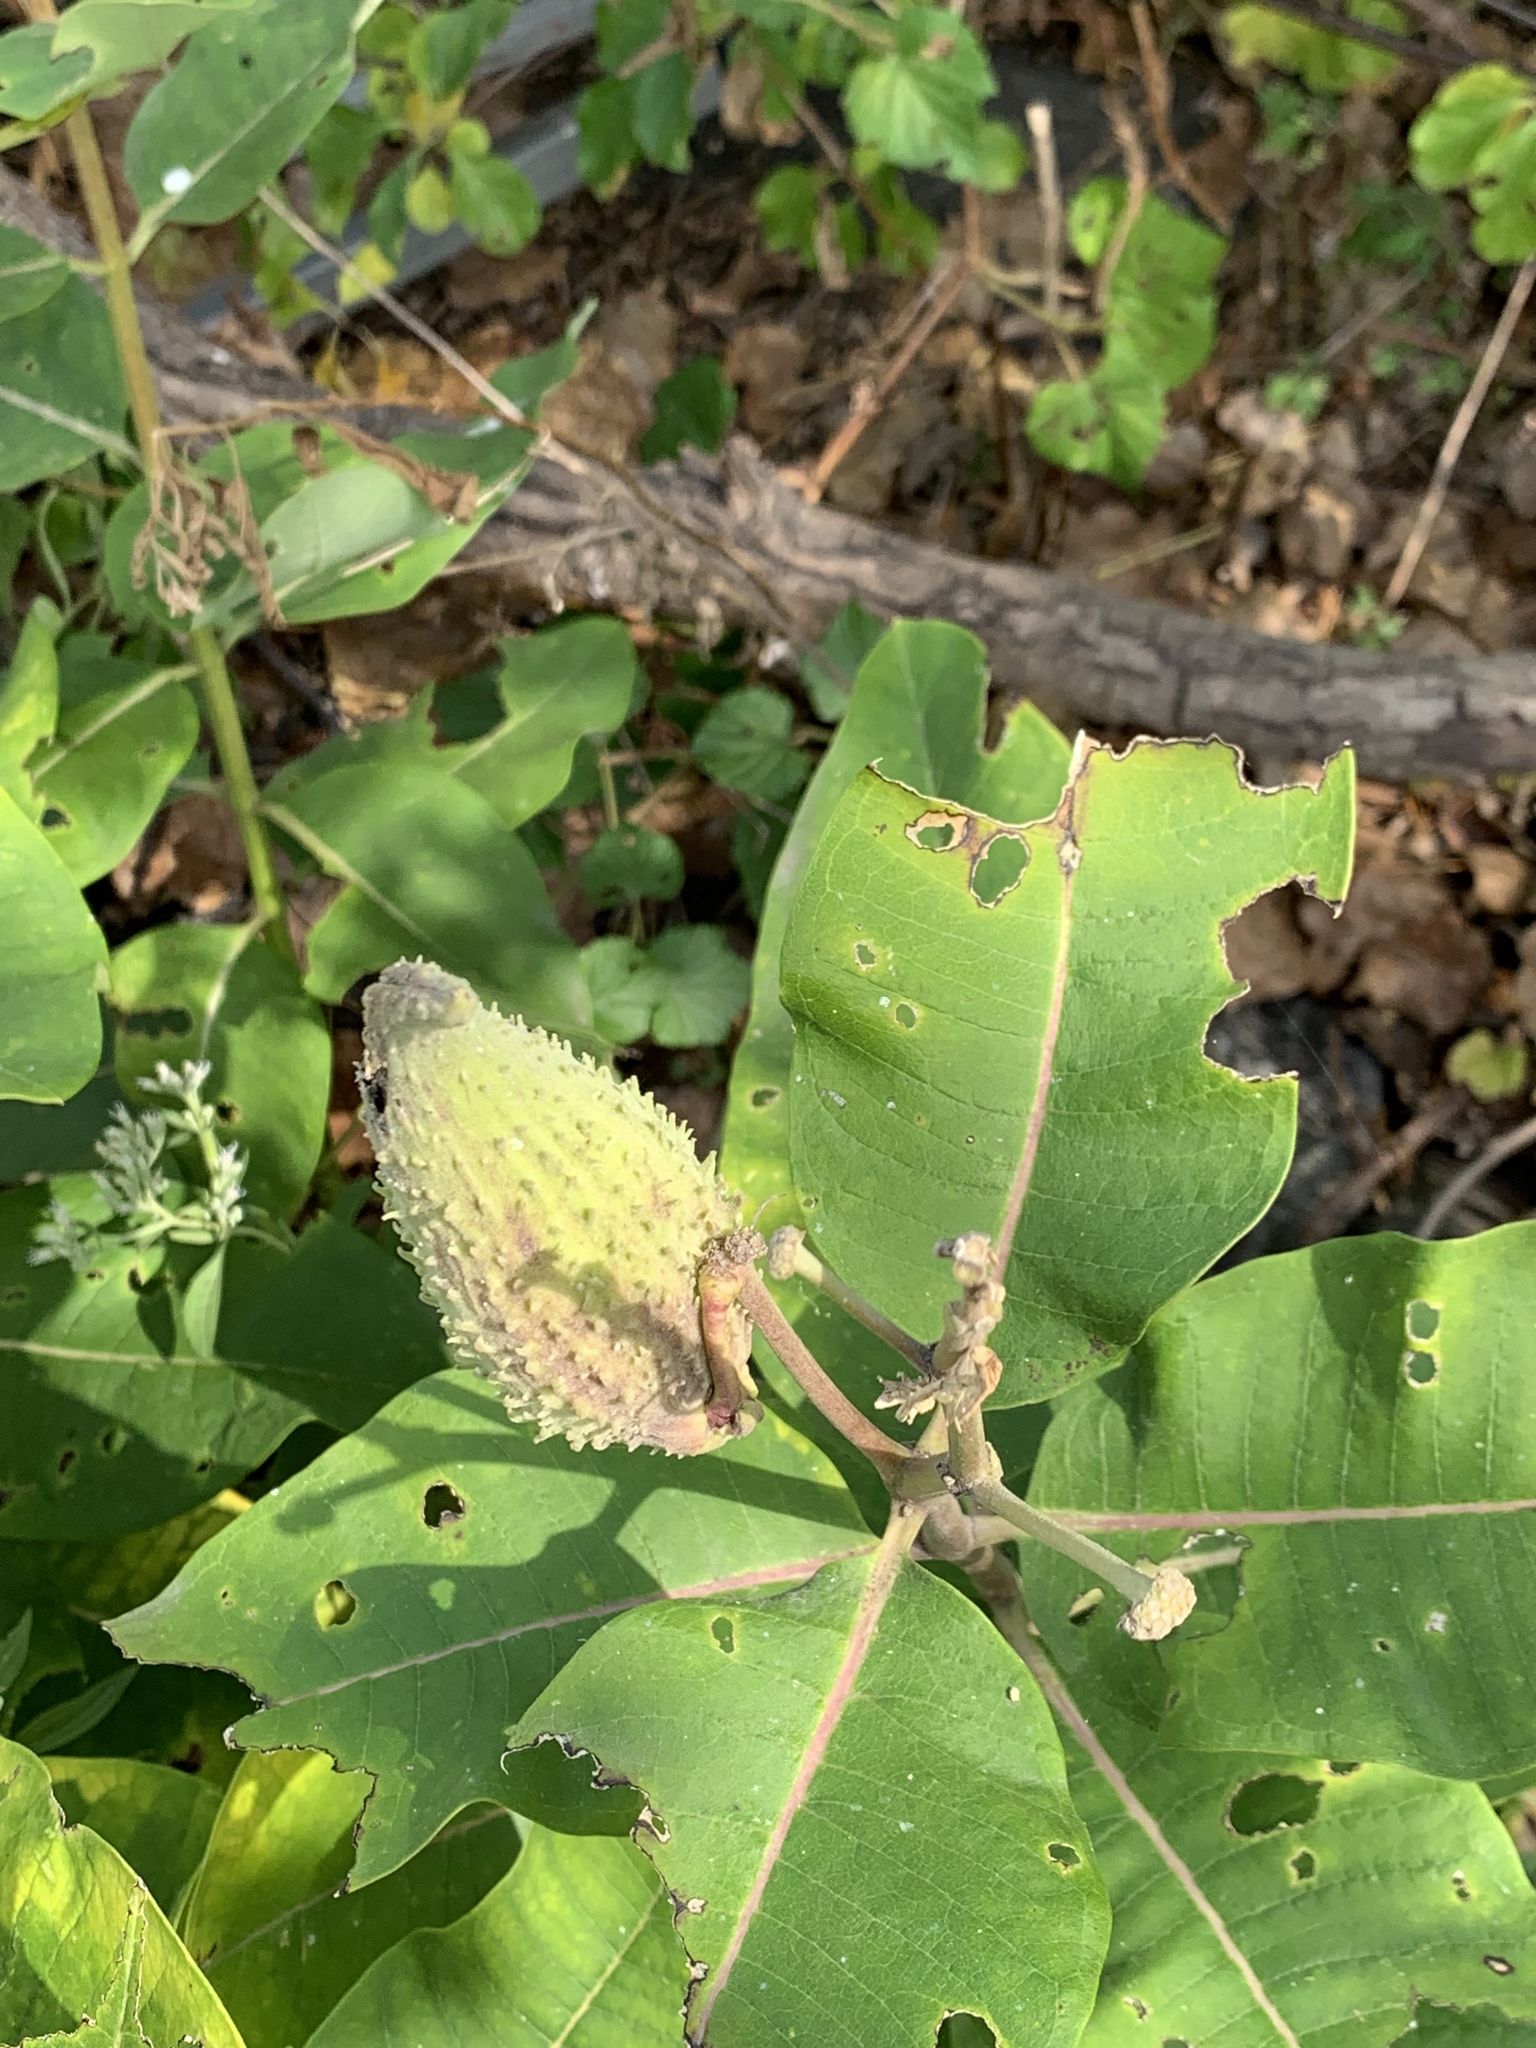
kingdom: Plantae
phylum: Tracheophyta
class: Magnoliopsida
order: Gentianales
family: Apocynaceae
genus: Asclepias
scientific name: Asclepias syriaca
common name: Common milkweed
